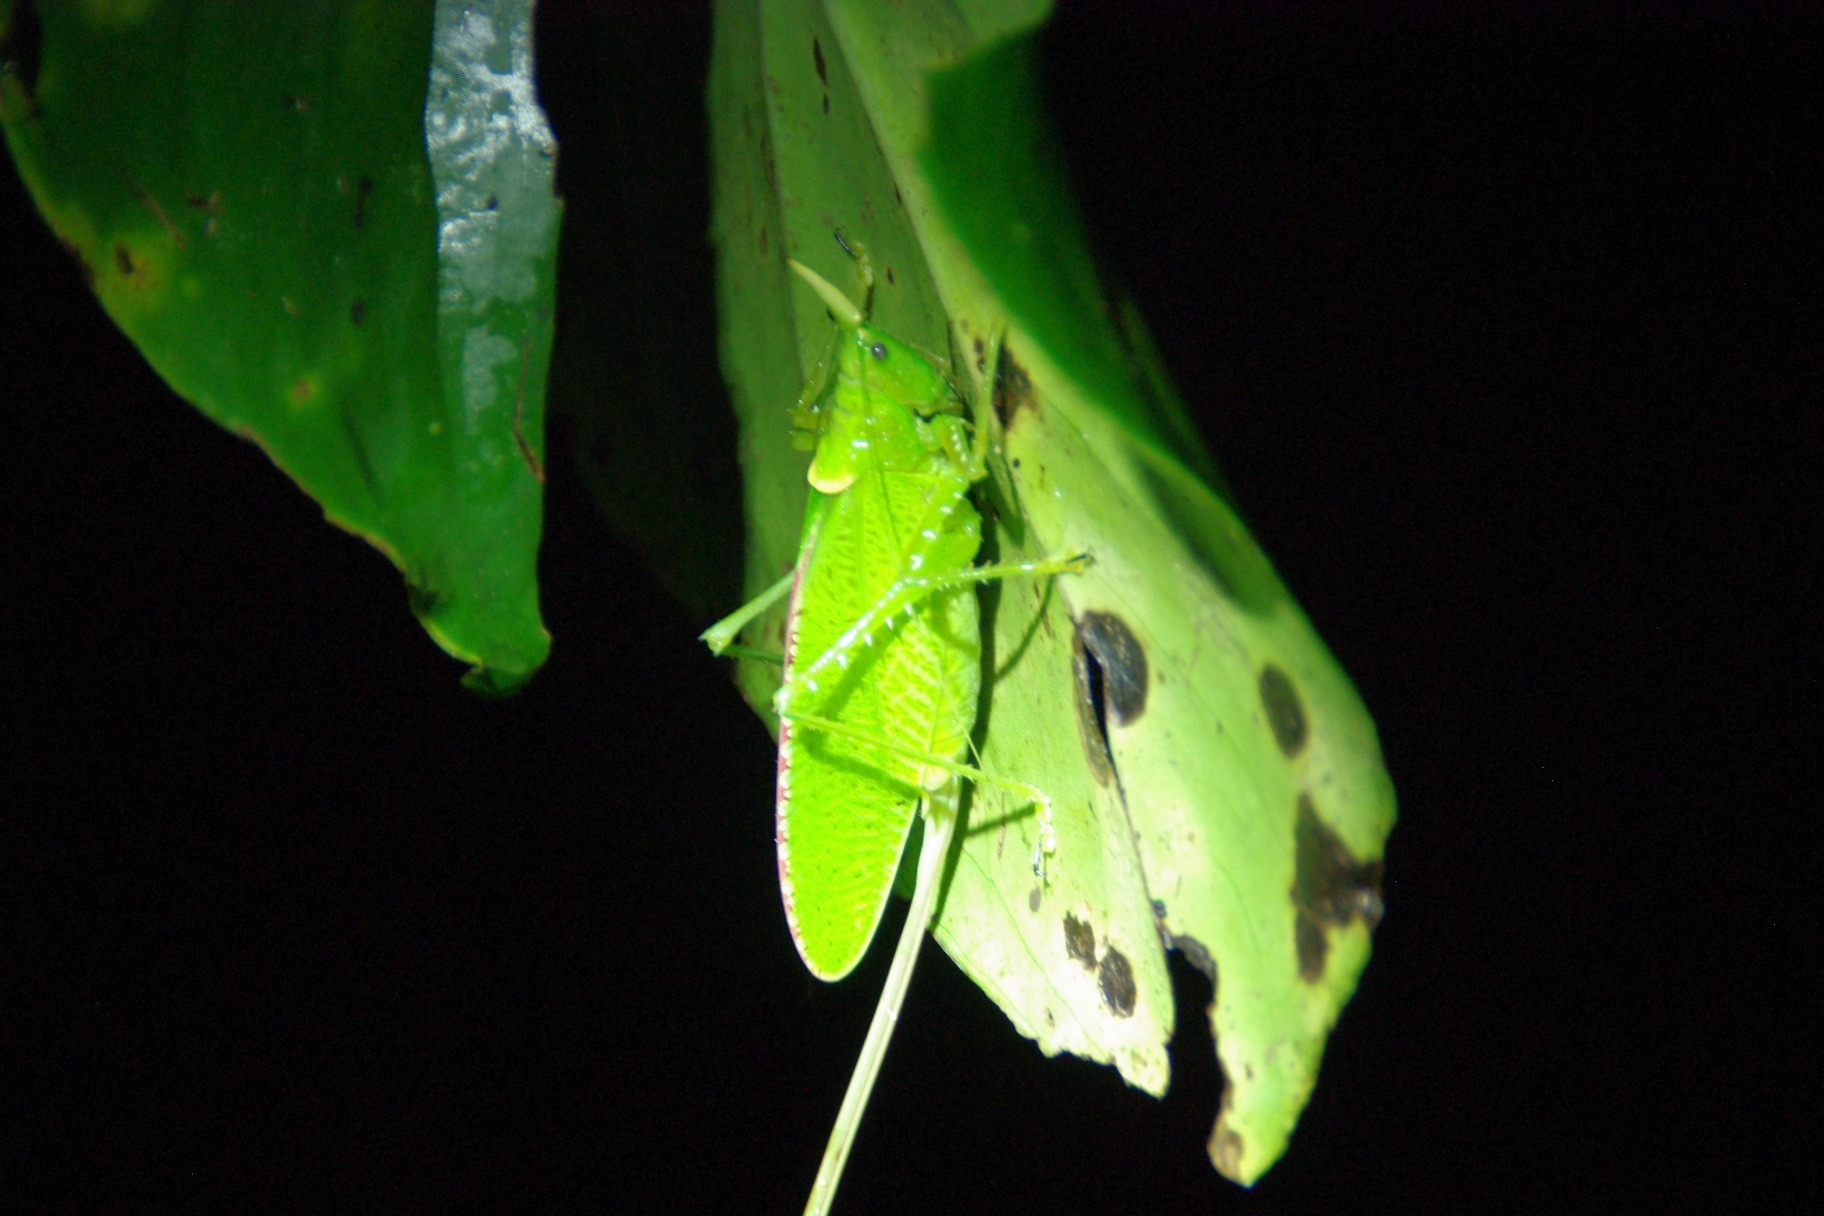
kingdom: Animalia
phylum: Arthropoda
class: Insecta
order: Orthoptera
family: Tettigoniidae
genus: Copiphora
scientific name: Copiphora rhinoceros
